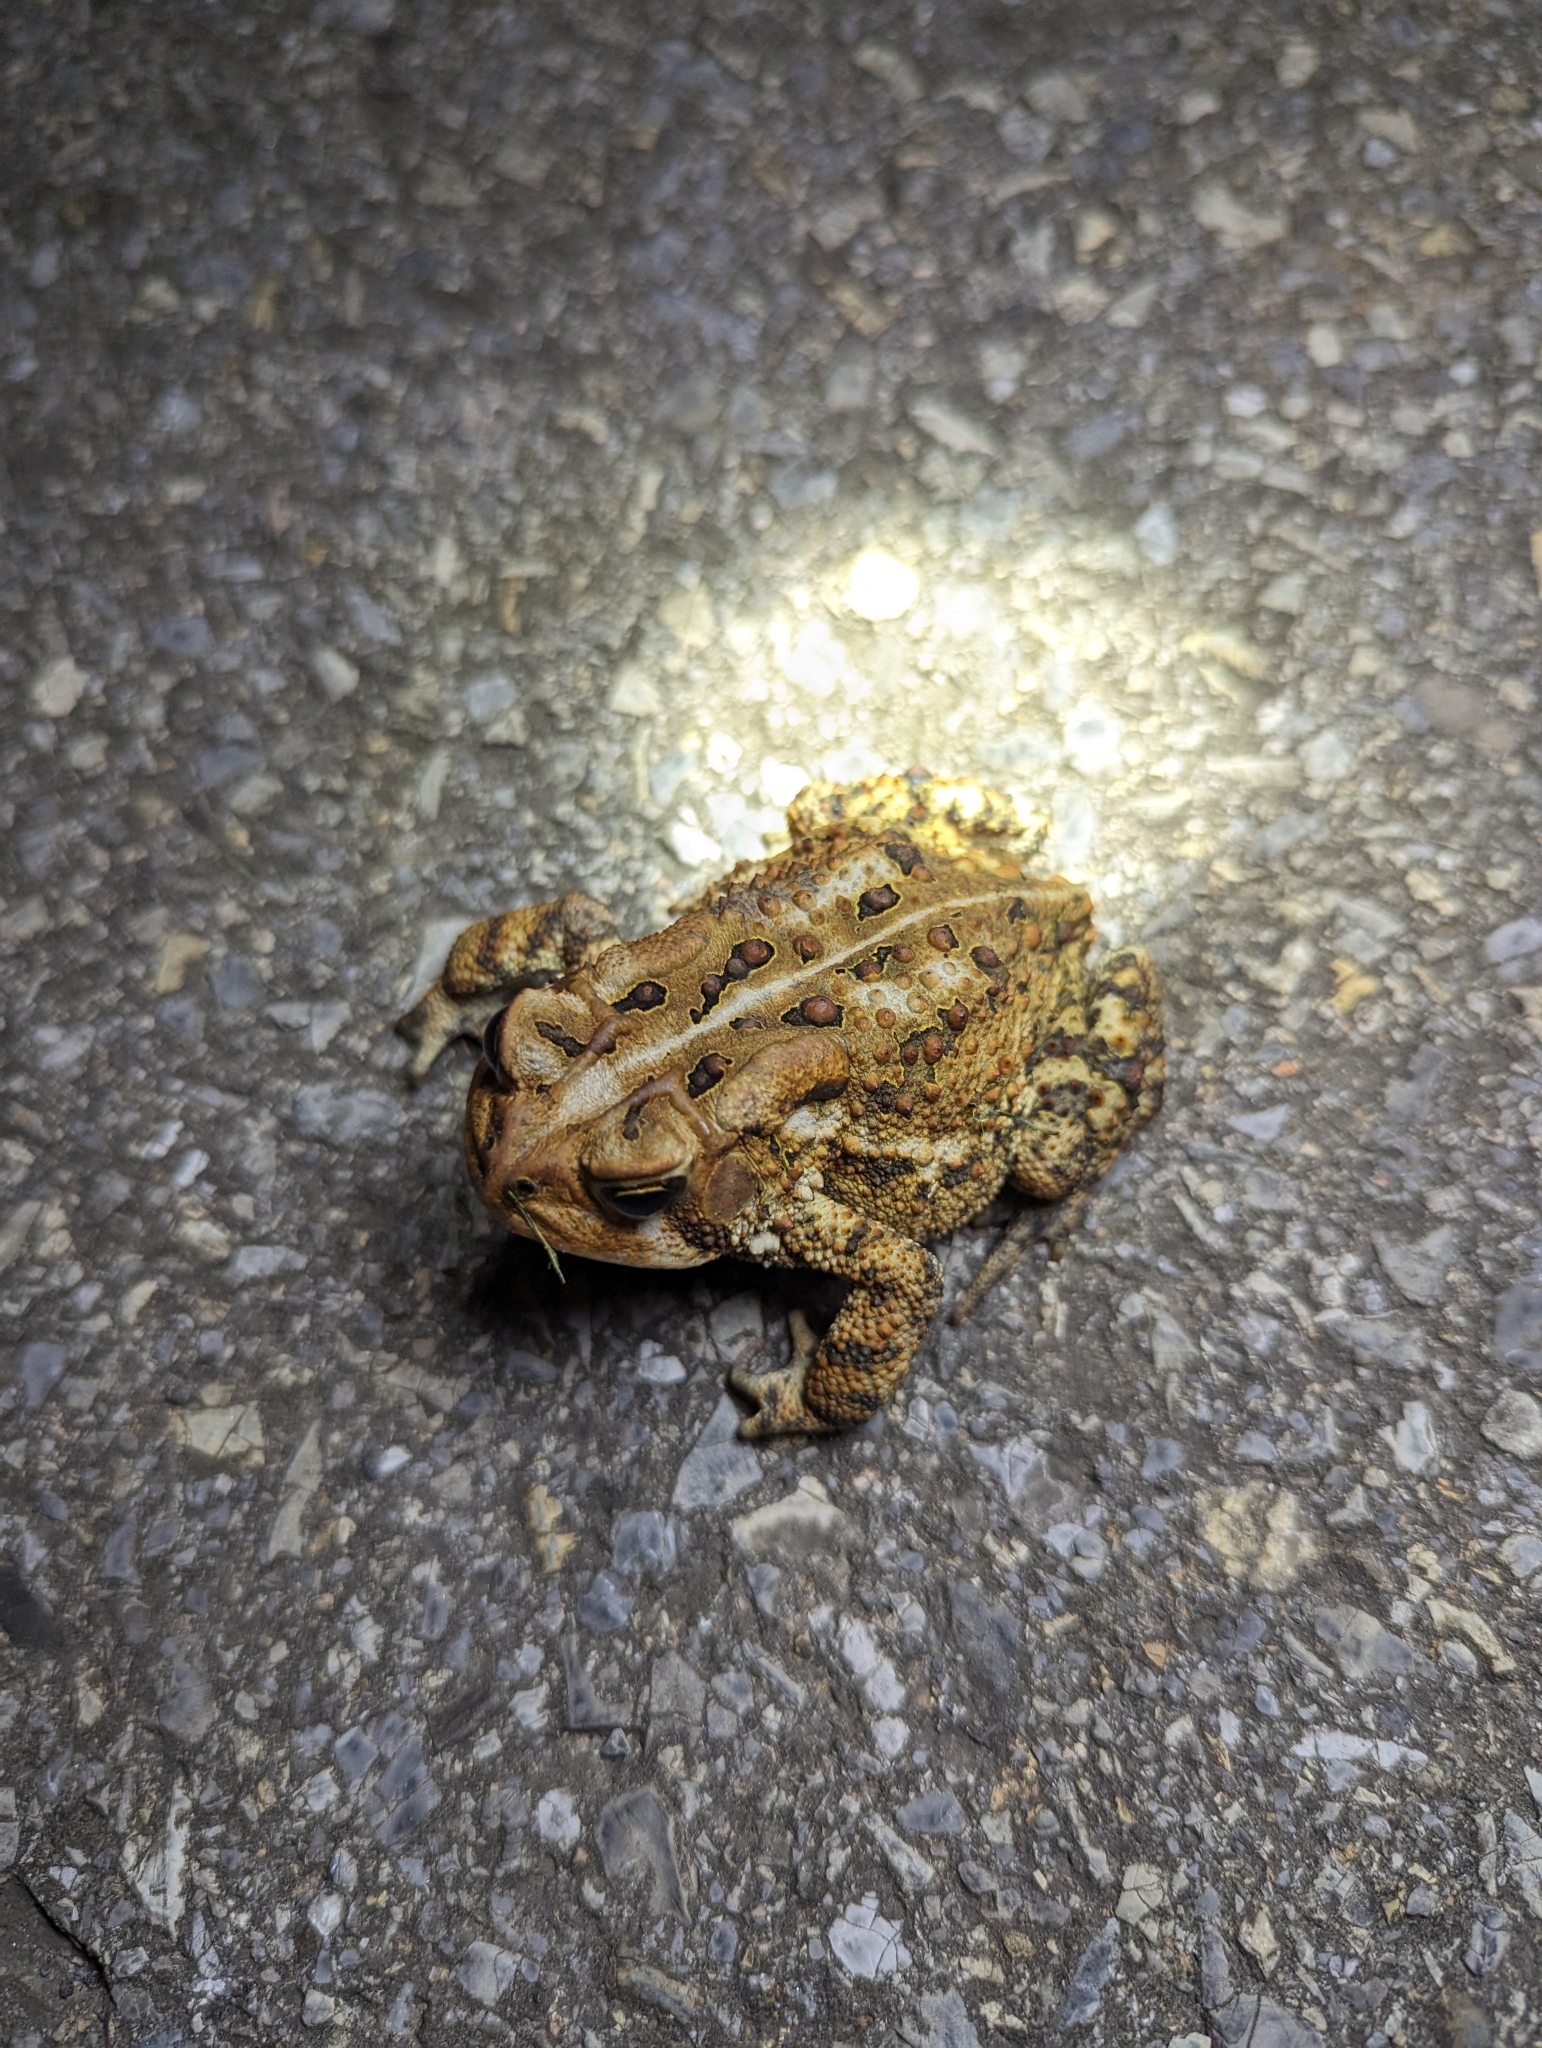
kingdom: Animalia
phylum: Chordata
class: Amphibia
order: Anura
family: Bufonidae
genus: Anaxyrus
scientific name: Anaxyrus americanus
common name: American toad
